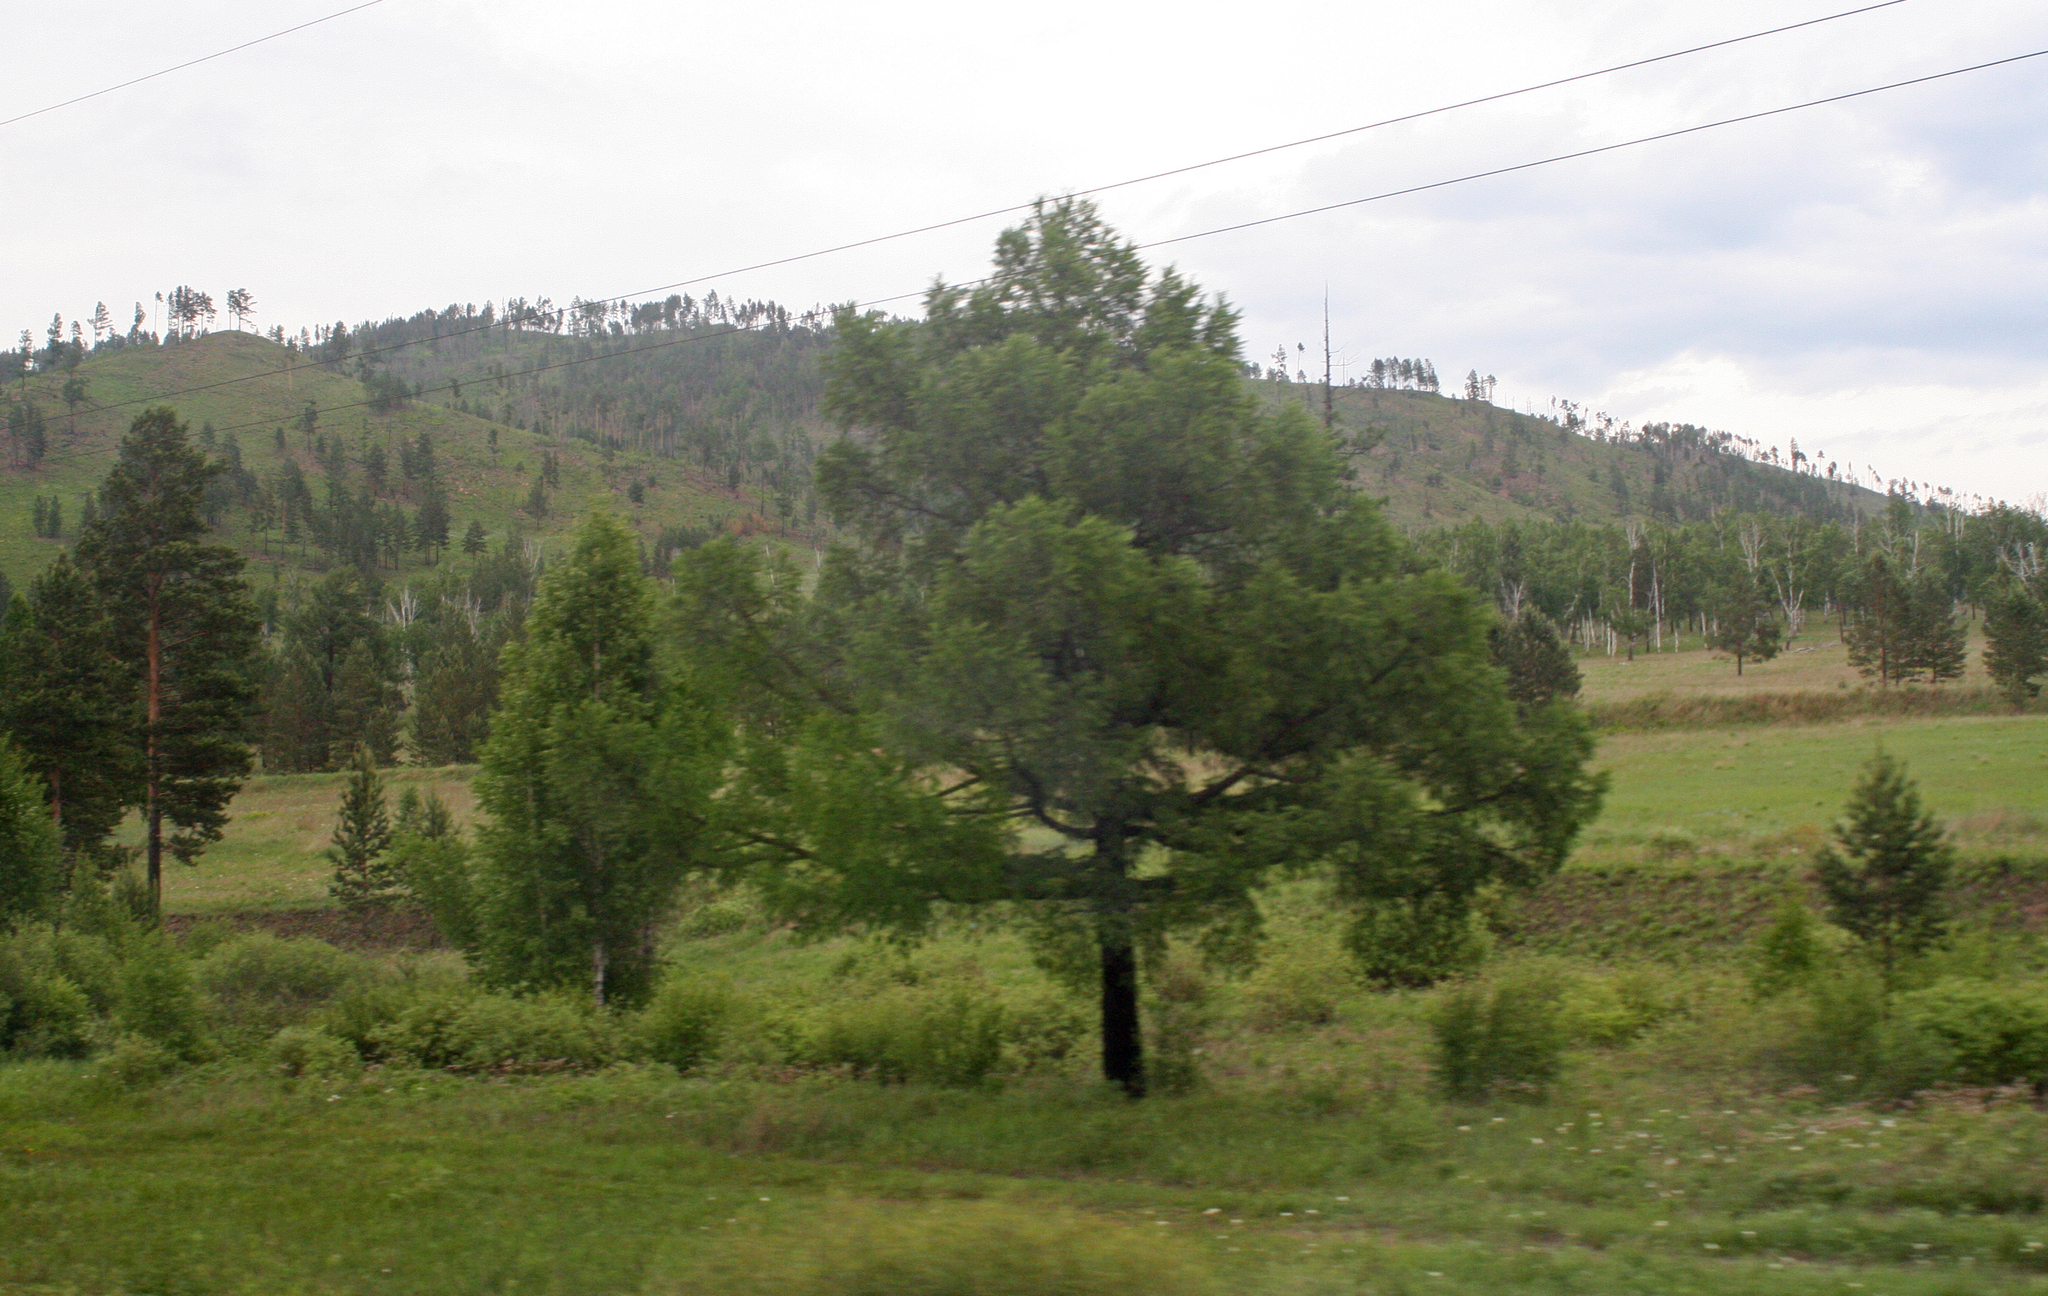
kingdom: Plantae
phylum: Tracheophyta
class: Pinopsida
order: Pinales
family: Pinaceae
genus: Larix
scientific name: Larix sibirica
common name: Siberian larch
